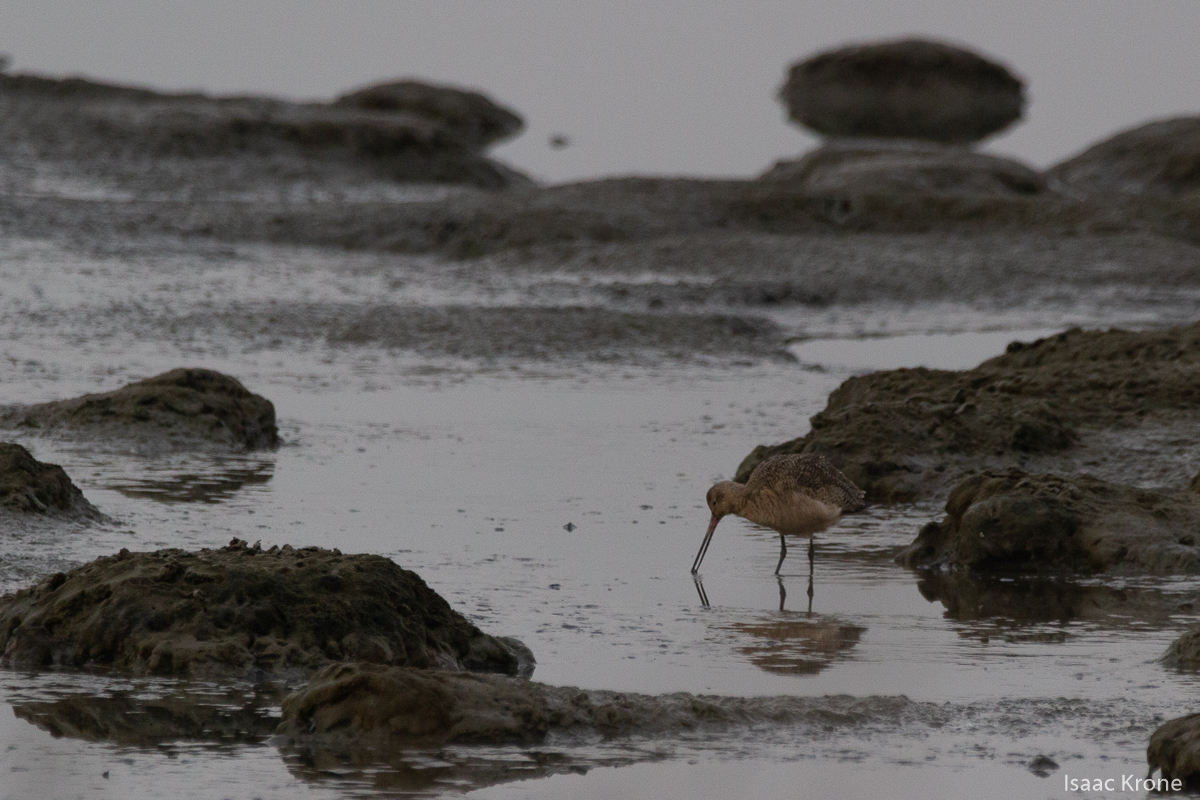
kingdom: Animalia
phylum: Chordata
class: Aves
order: Charadriiformes
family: Scolopacidae
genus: Limosa
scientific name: Limosa fedoa
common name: Marbled godwit
